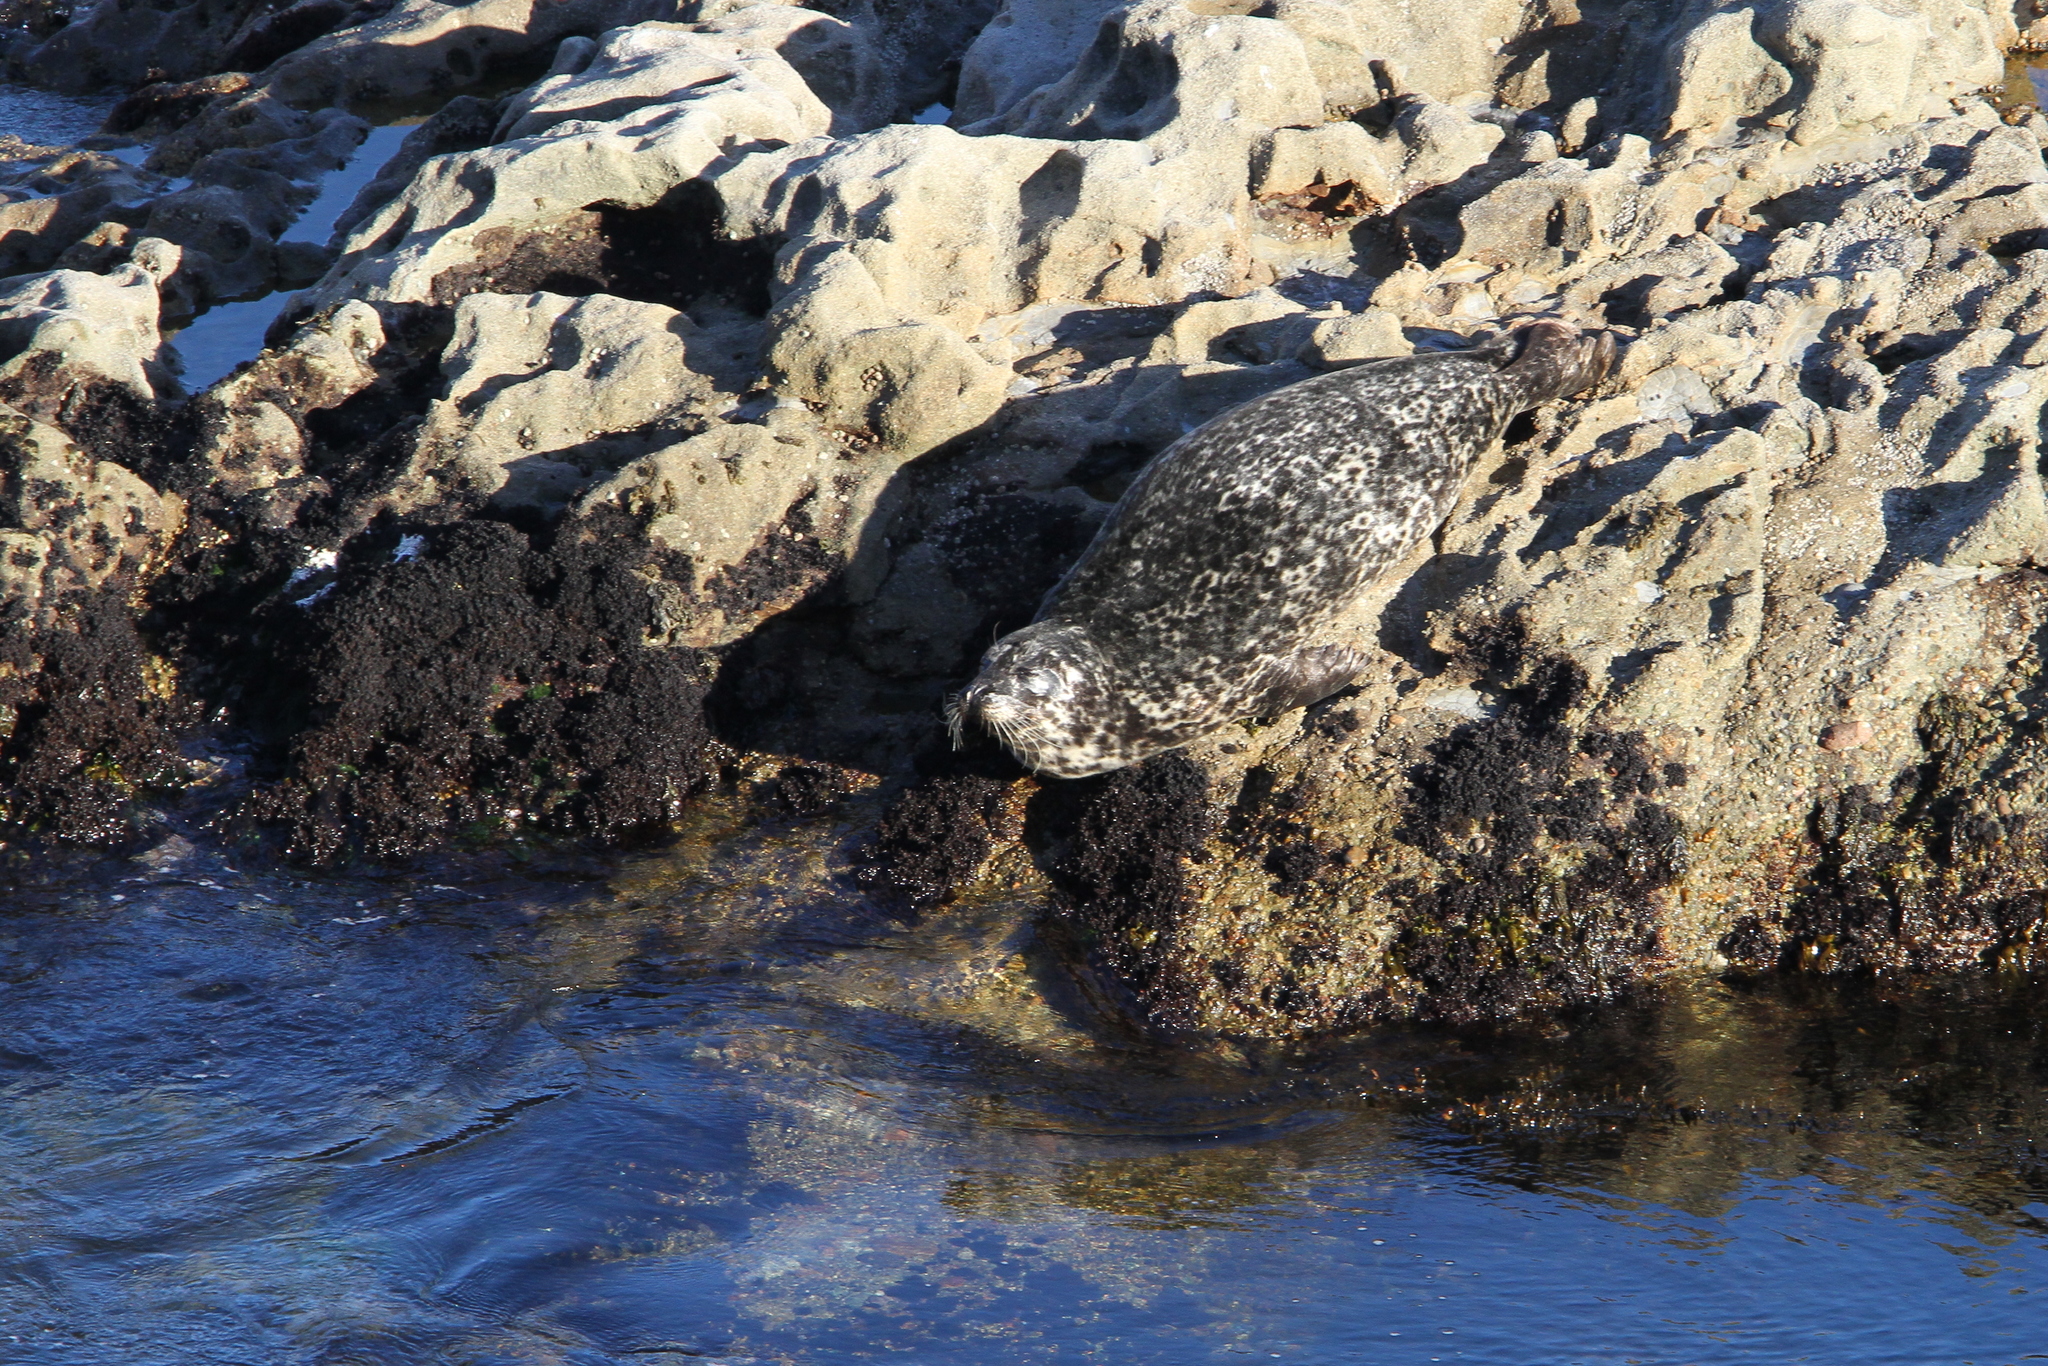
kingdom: Animalia
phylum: Chordata
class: Mammalia
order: Carnivora
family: Phocidae
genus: Phoca
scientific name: Phoca vitulina
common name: Harbor seal
